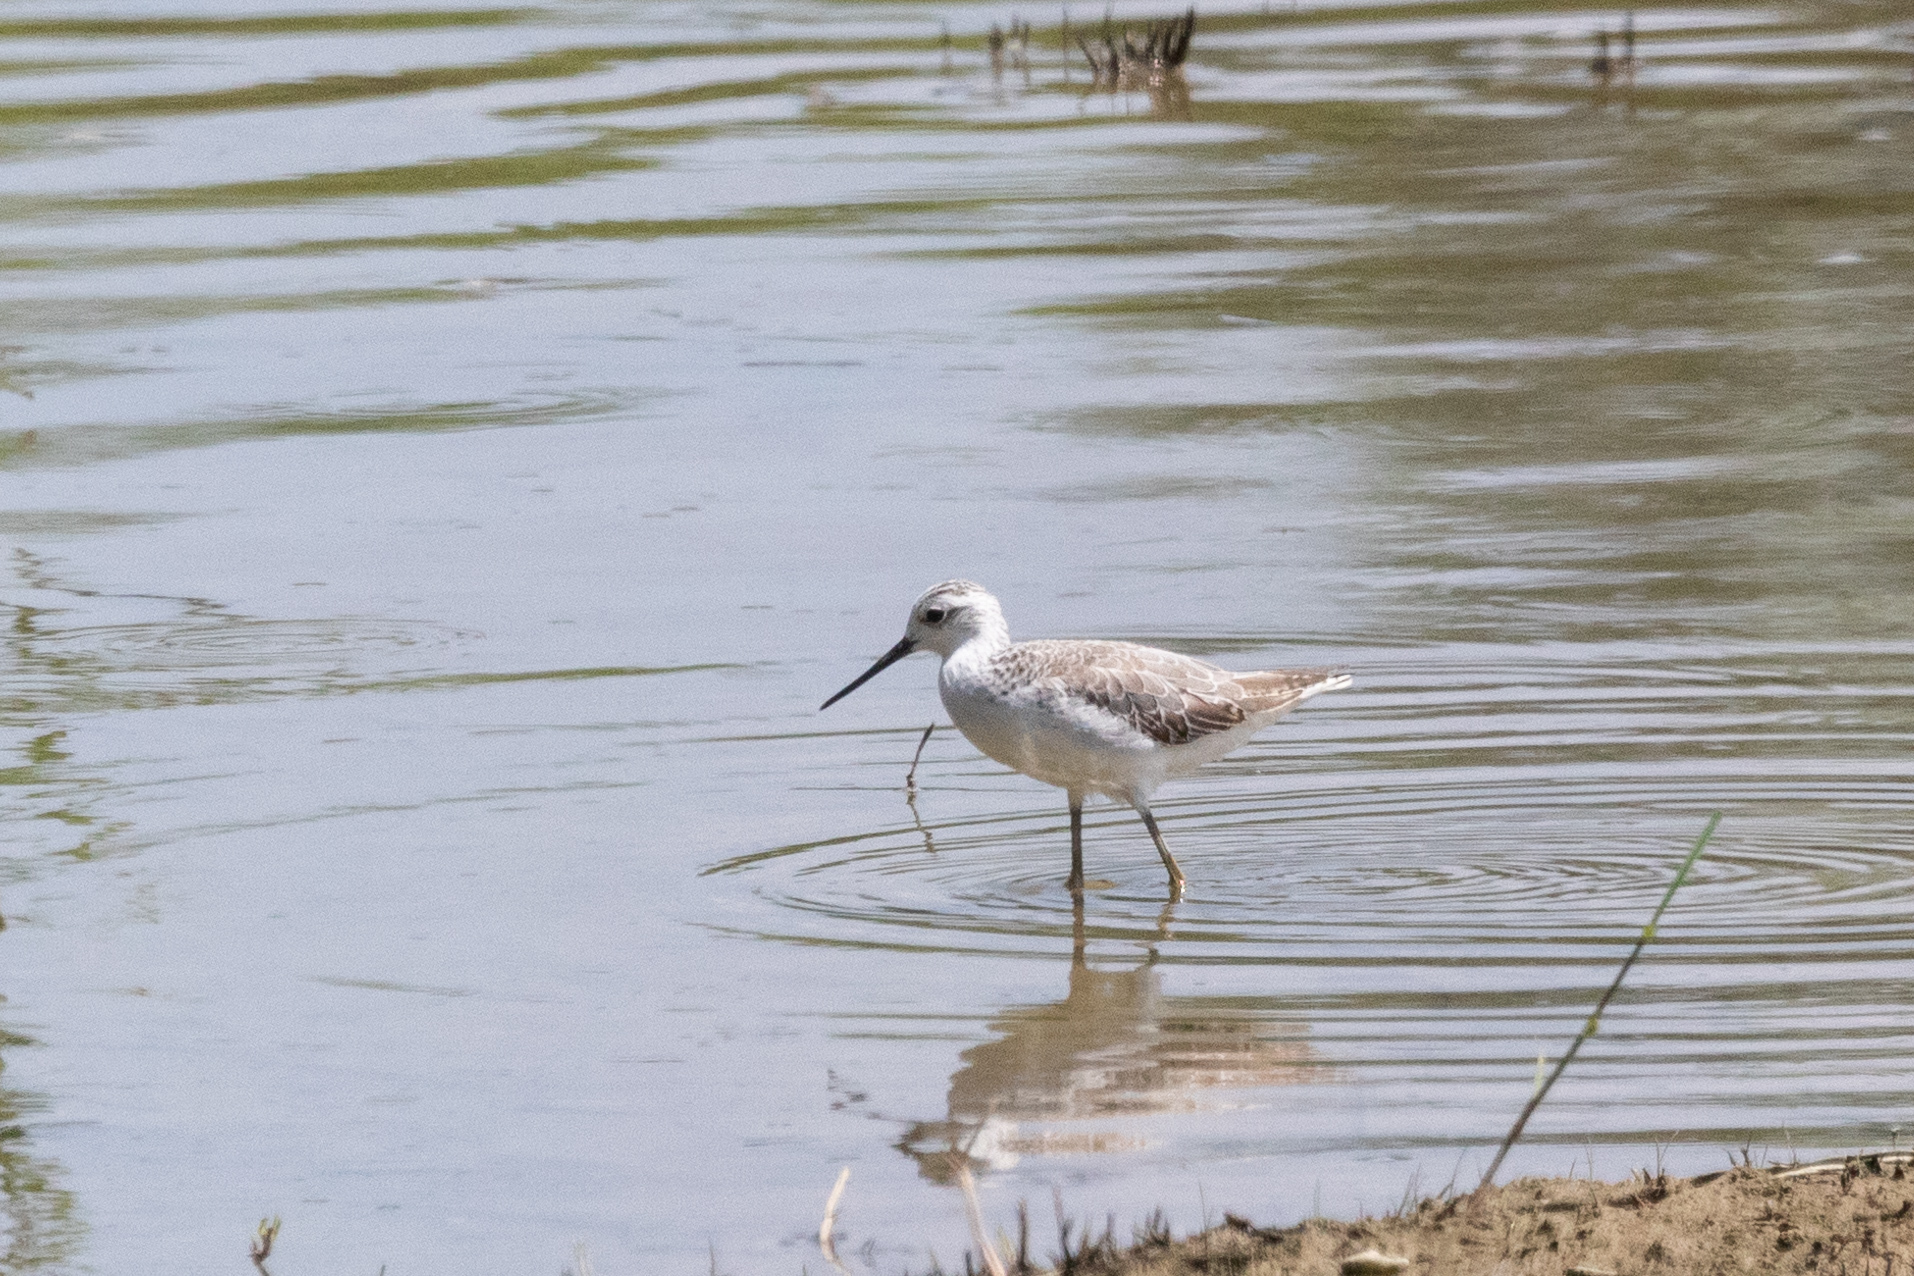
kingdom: Animalia
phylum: Chordata
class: Aves
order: Charadriiformes
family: Scolopacidae
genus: Tringa
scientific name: Tringa stagnatilis
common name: Marsh sandpiper
